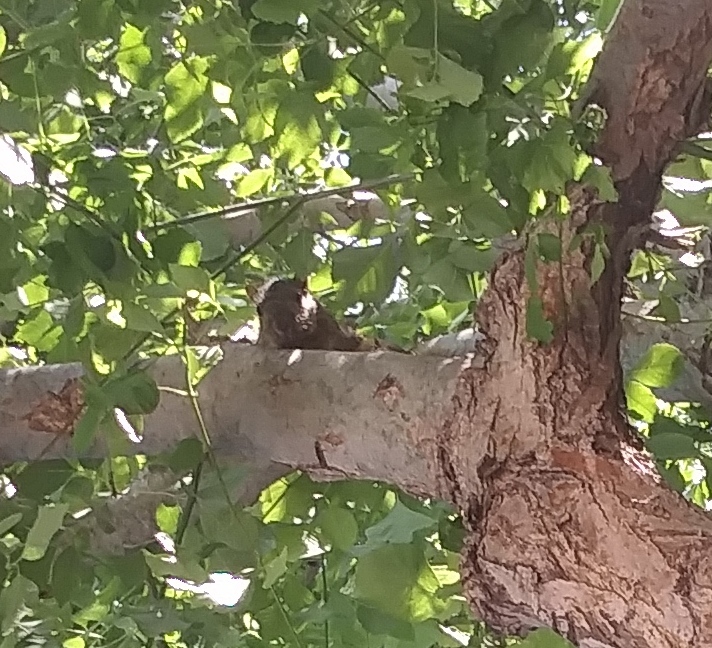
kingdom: Animalia
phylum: Chordata
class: Mammalia
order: Rodentia
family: Sciuridae
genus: Sciurus
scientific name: Sciurus niger
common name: Fox squirrel
